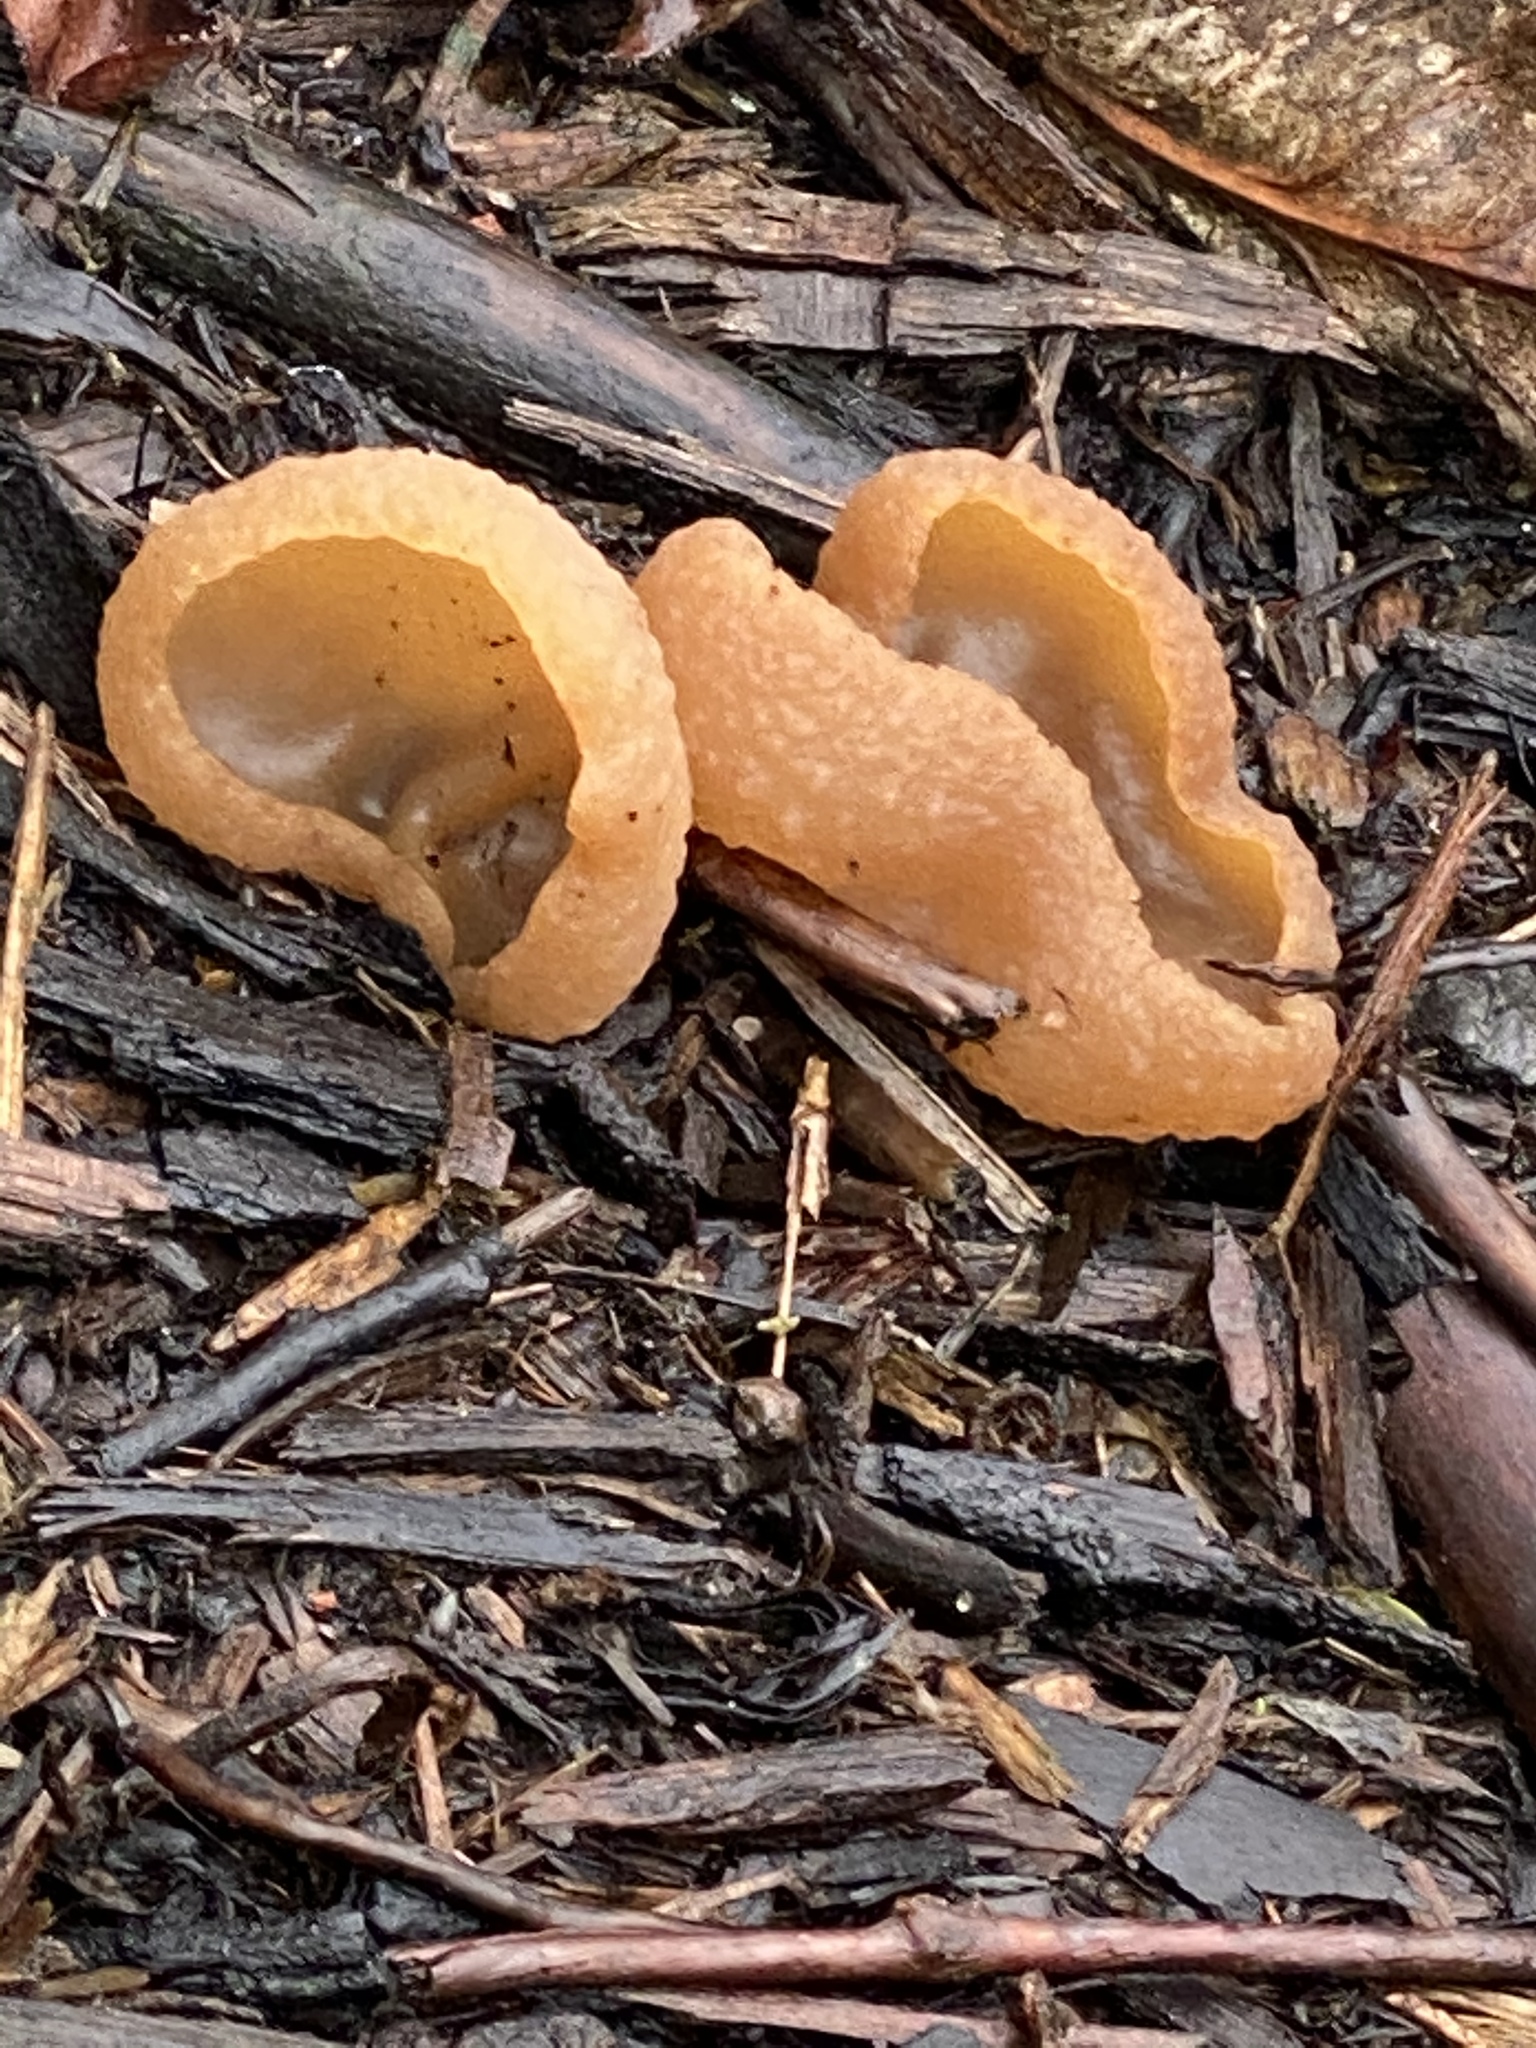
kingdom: Fungi
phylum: Ascomycota
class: Pezizomycetes
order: Pezizales
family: Pezizaceae
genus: Peziza
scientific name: Peziza varia
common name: Layered cup
